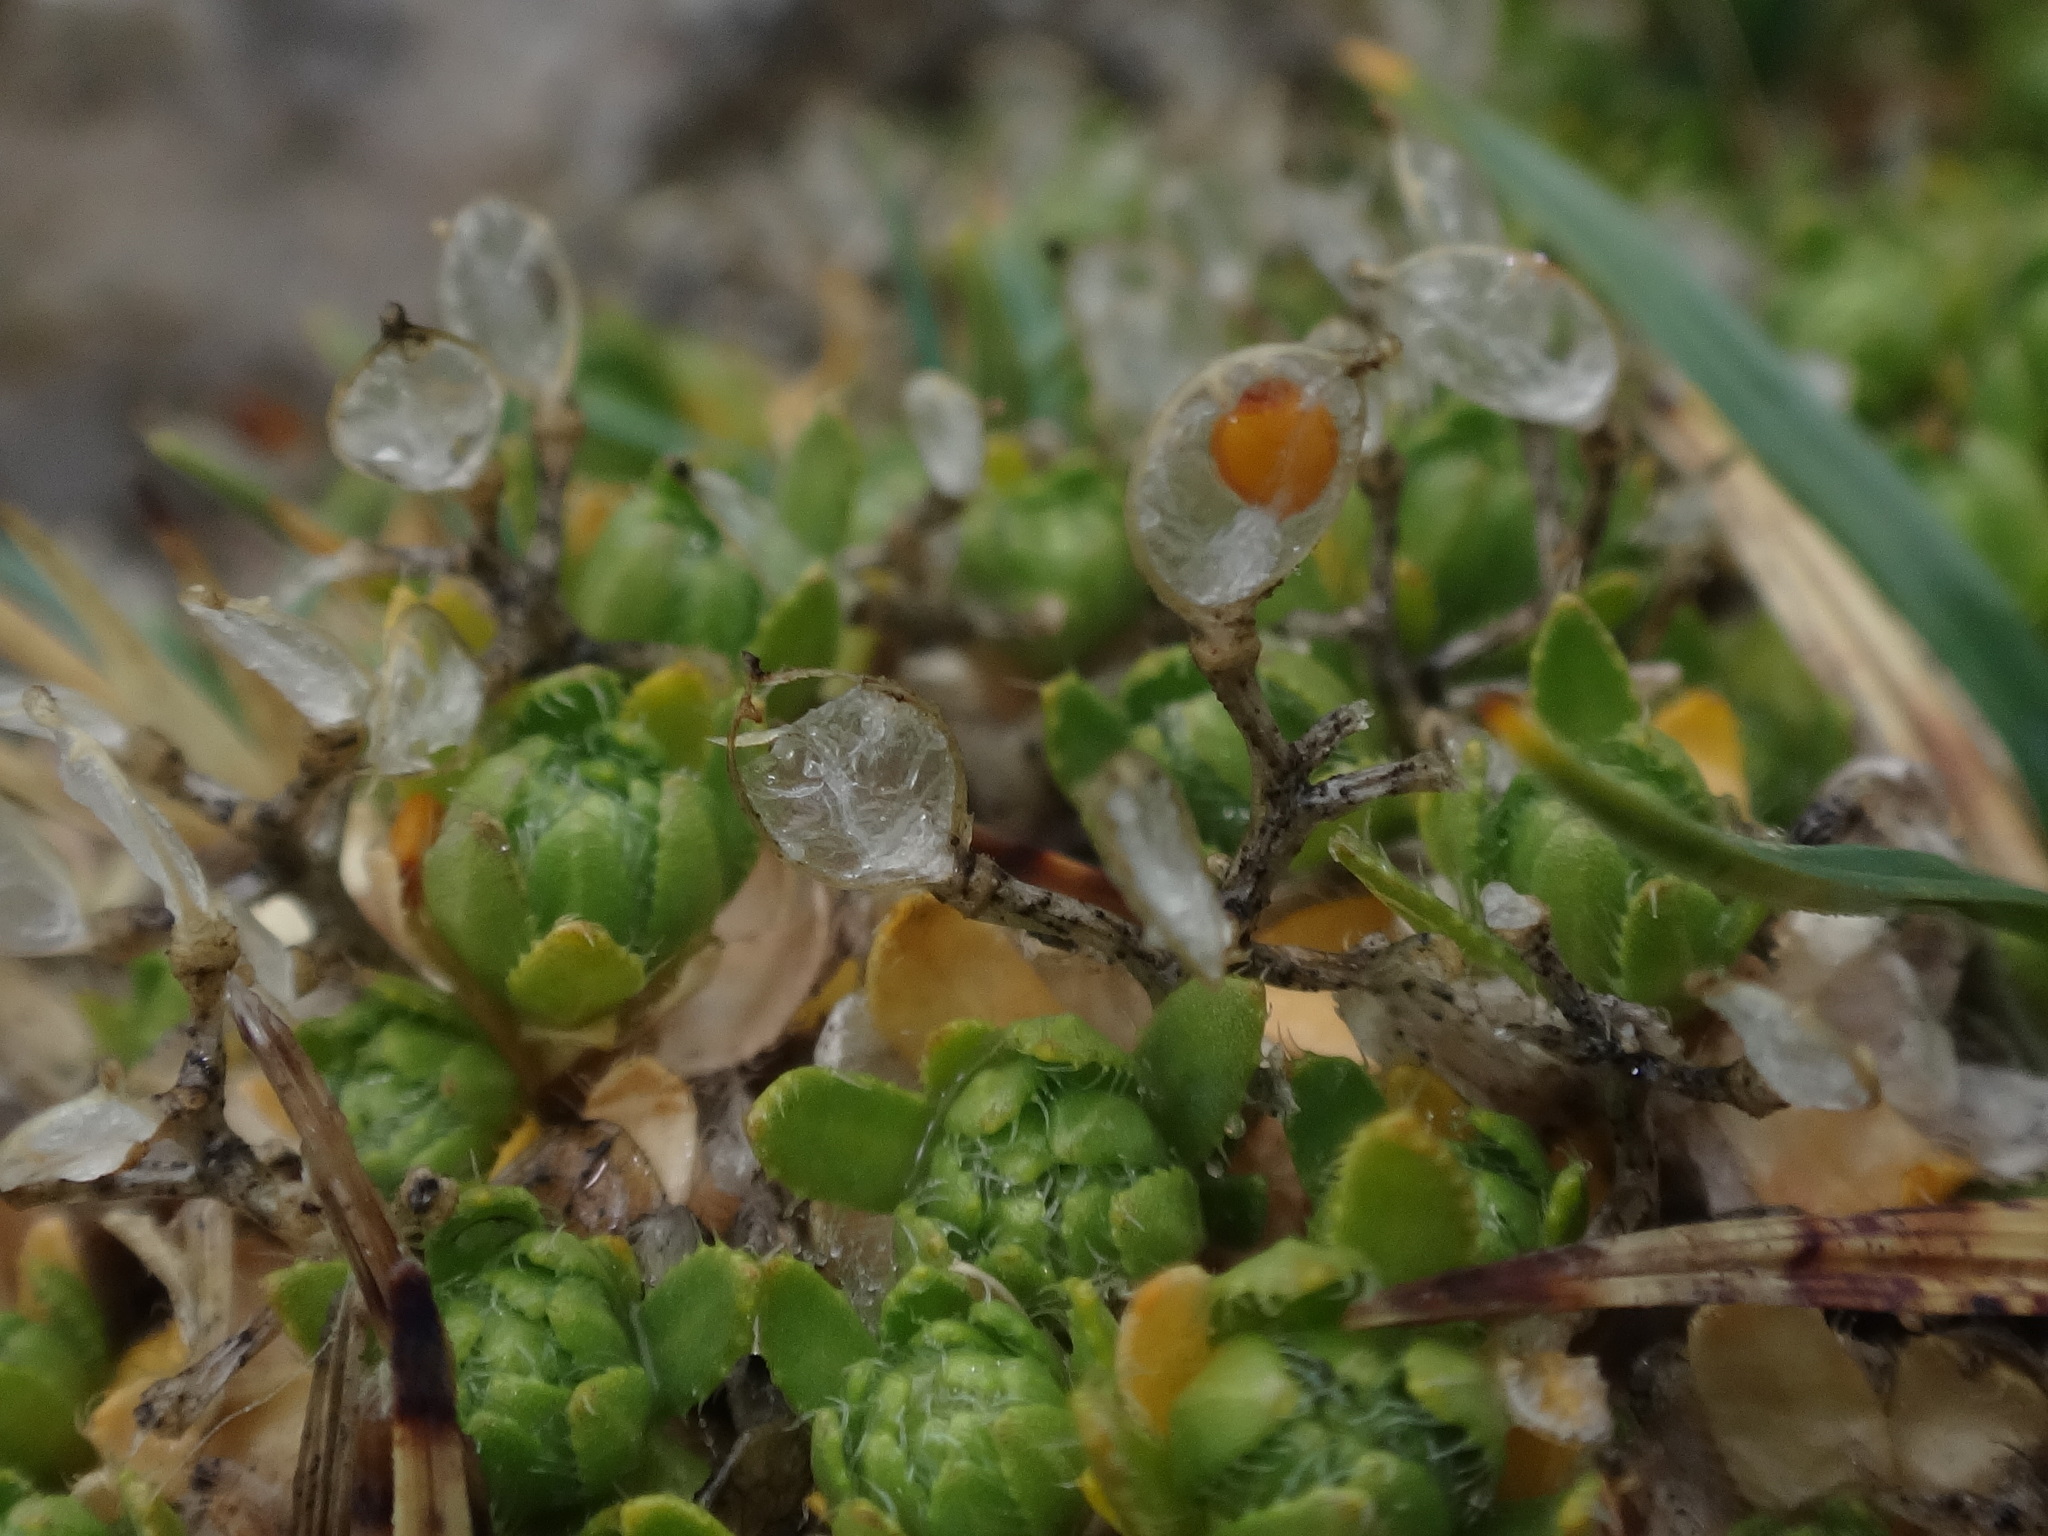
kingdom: Plantae
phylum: Tracheophyta
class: Magnoliopsida
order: Brassicales
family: Brassicaceae
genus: Draba
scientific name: Draba sauteri
